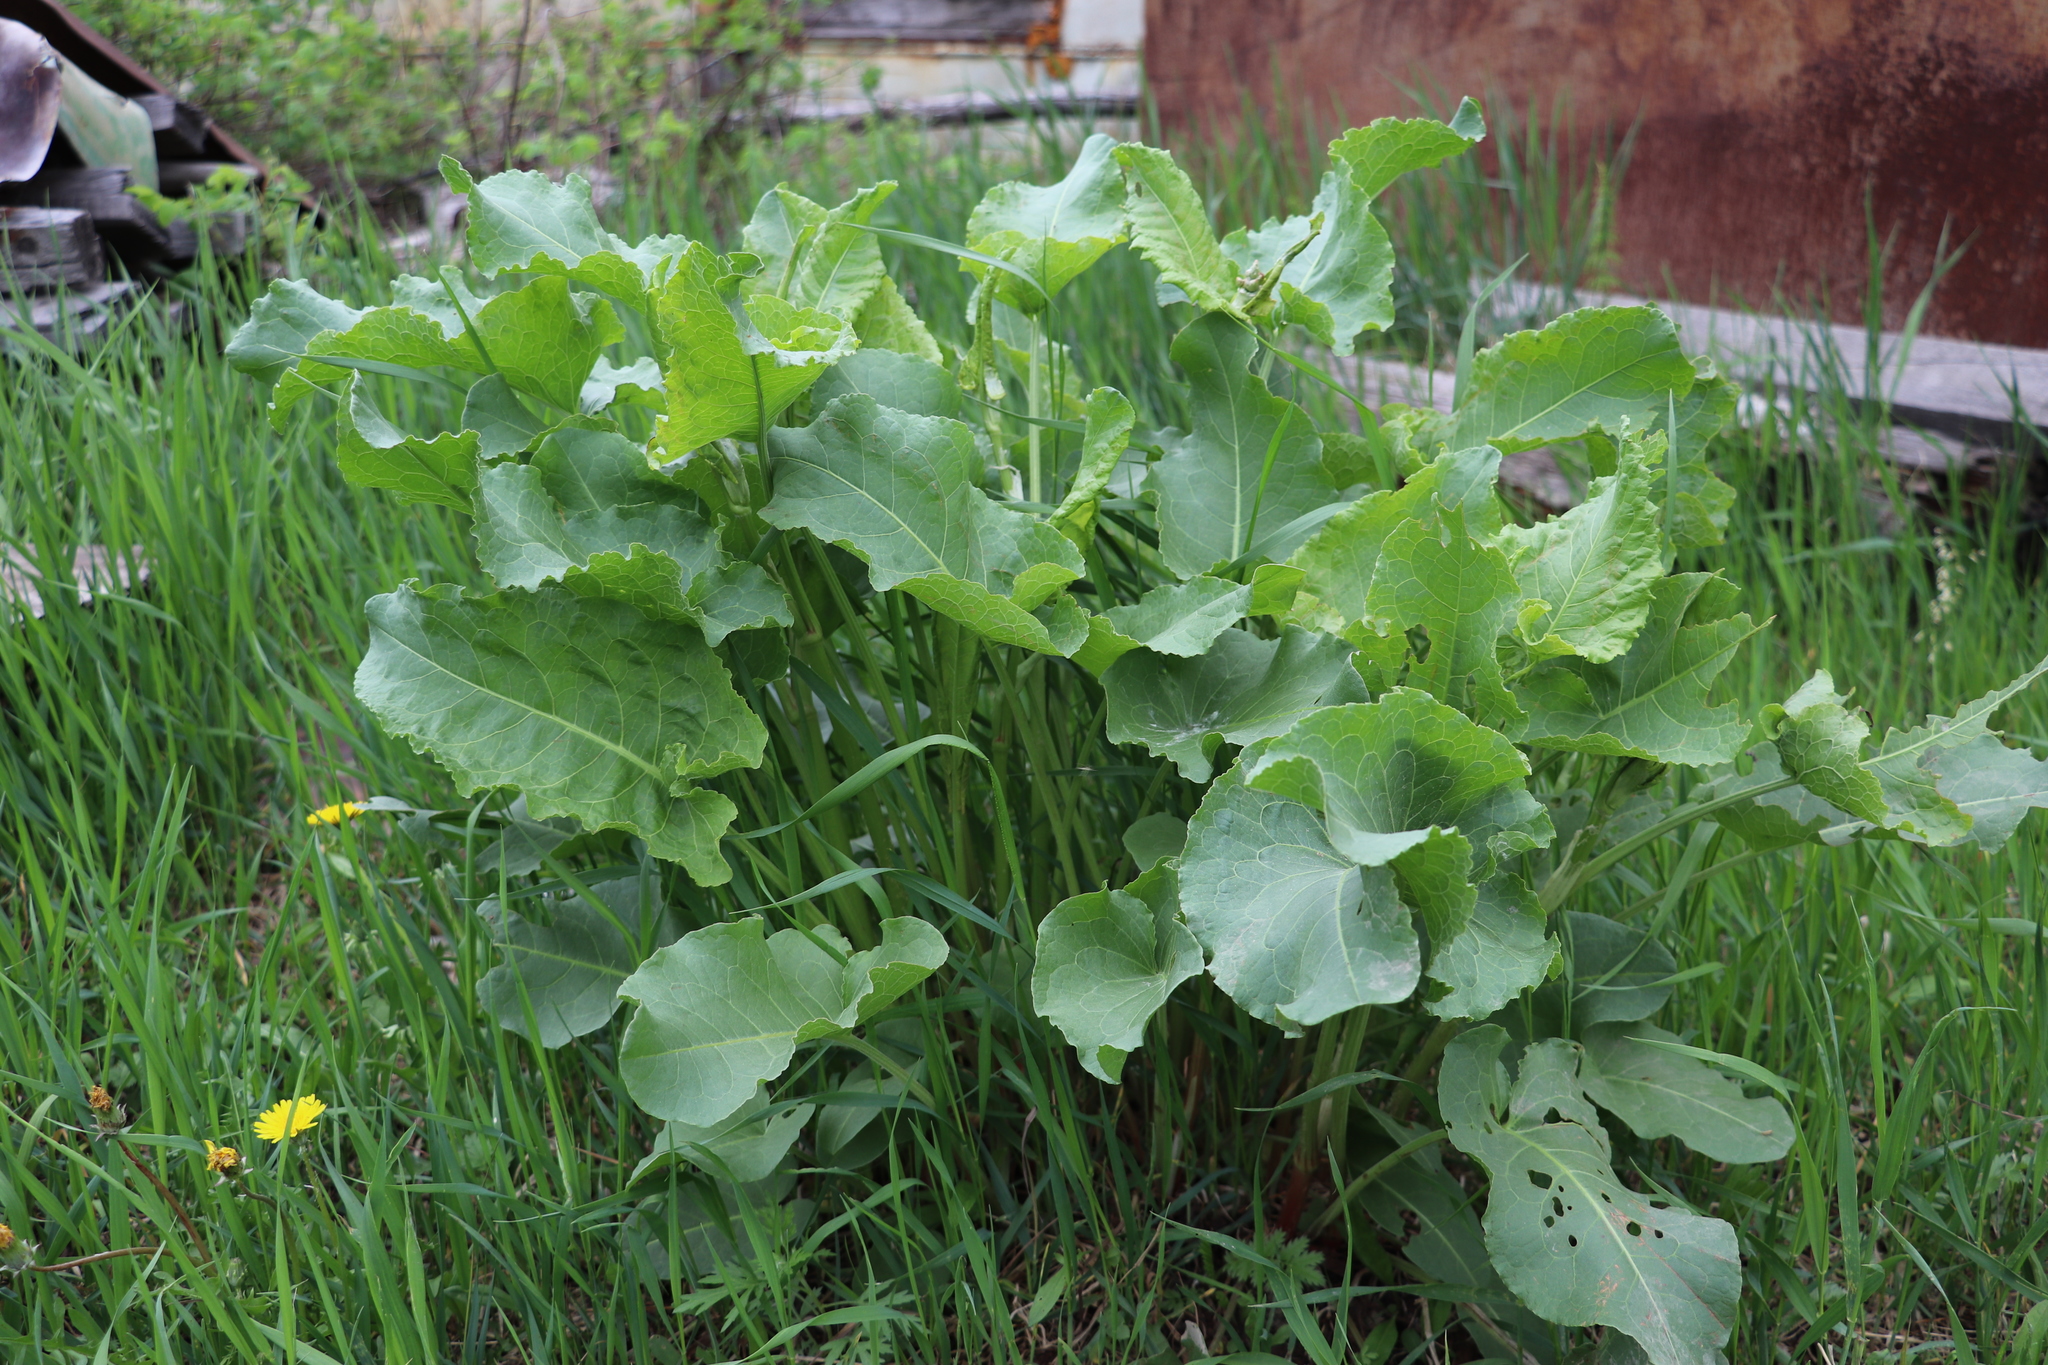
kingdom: Plantae
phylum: Tracheophyta
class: Magnoliopsida
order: Caryophyllales
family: Polygonaceae
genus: Rumex
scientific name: Rumex confertus
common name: Russian dock
